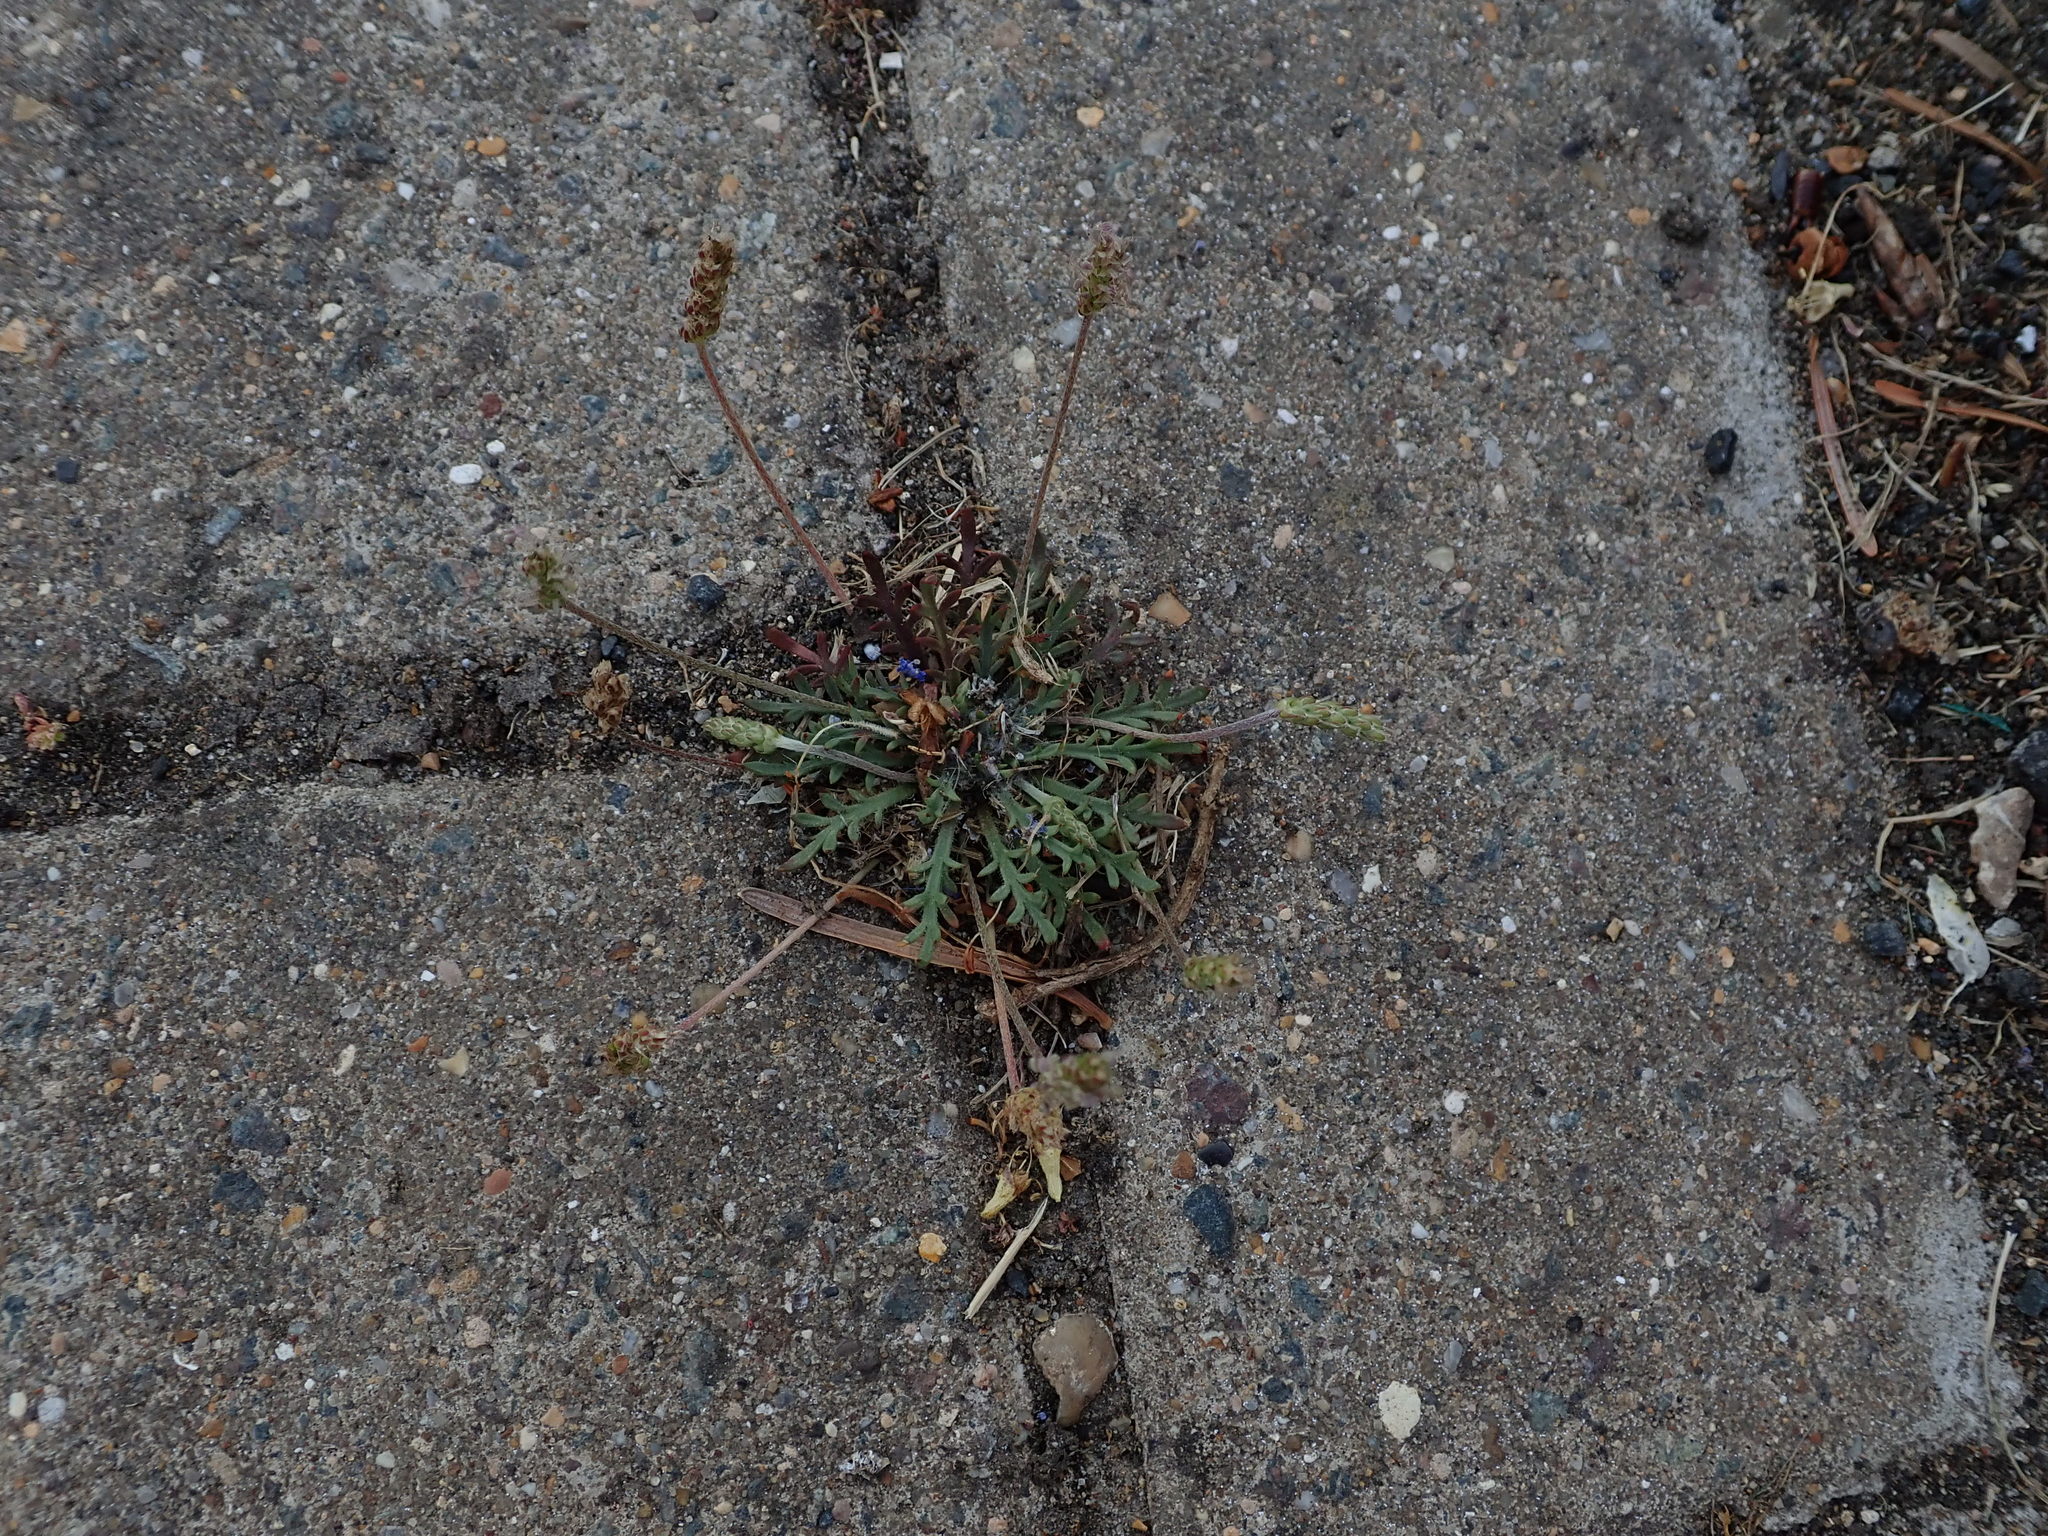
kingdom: Plantae
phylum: Tracheophyta
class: Magnoliopsida
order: Lamiales
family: Plantaginaceae
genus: Plantago
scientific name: Plantago coronopus
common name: Buck's-horn plantain
